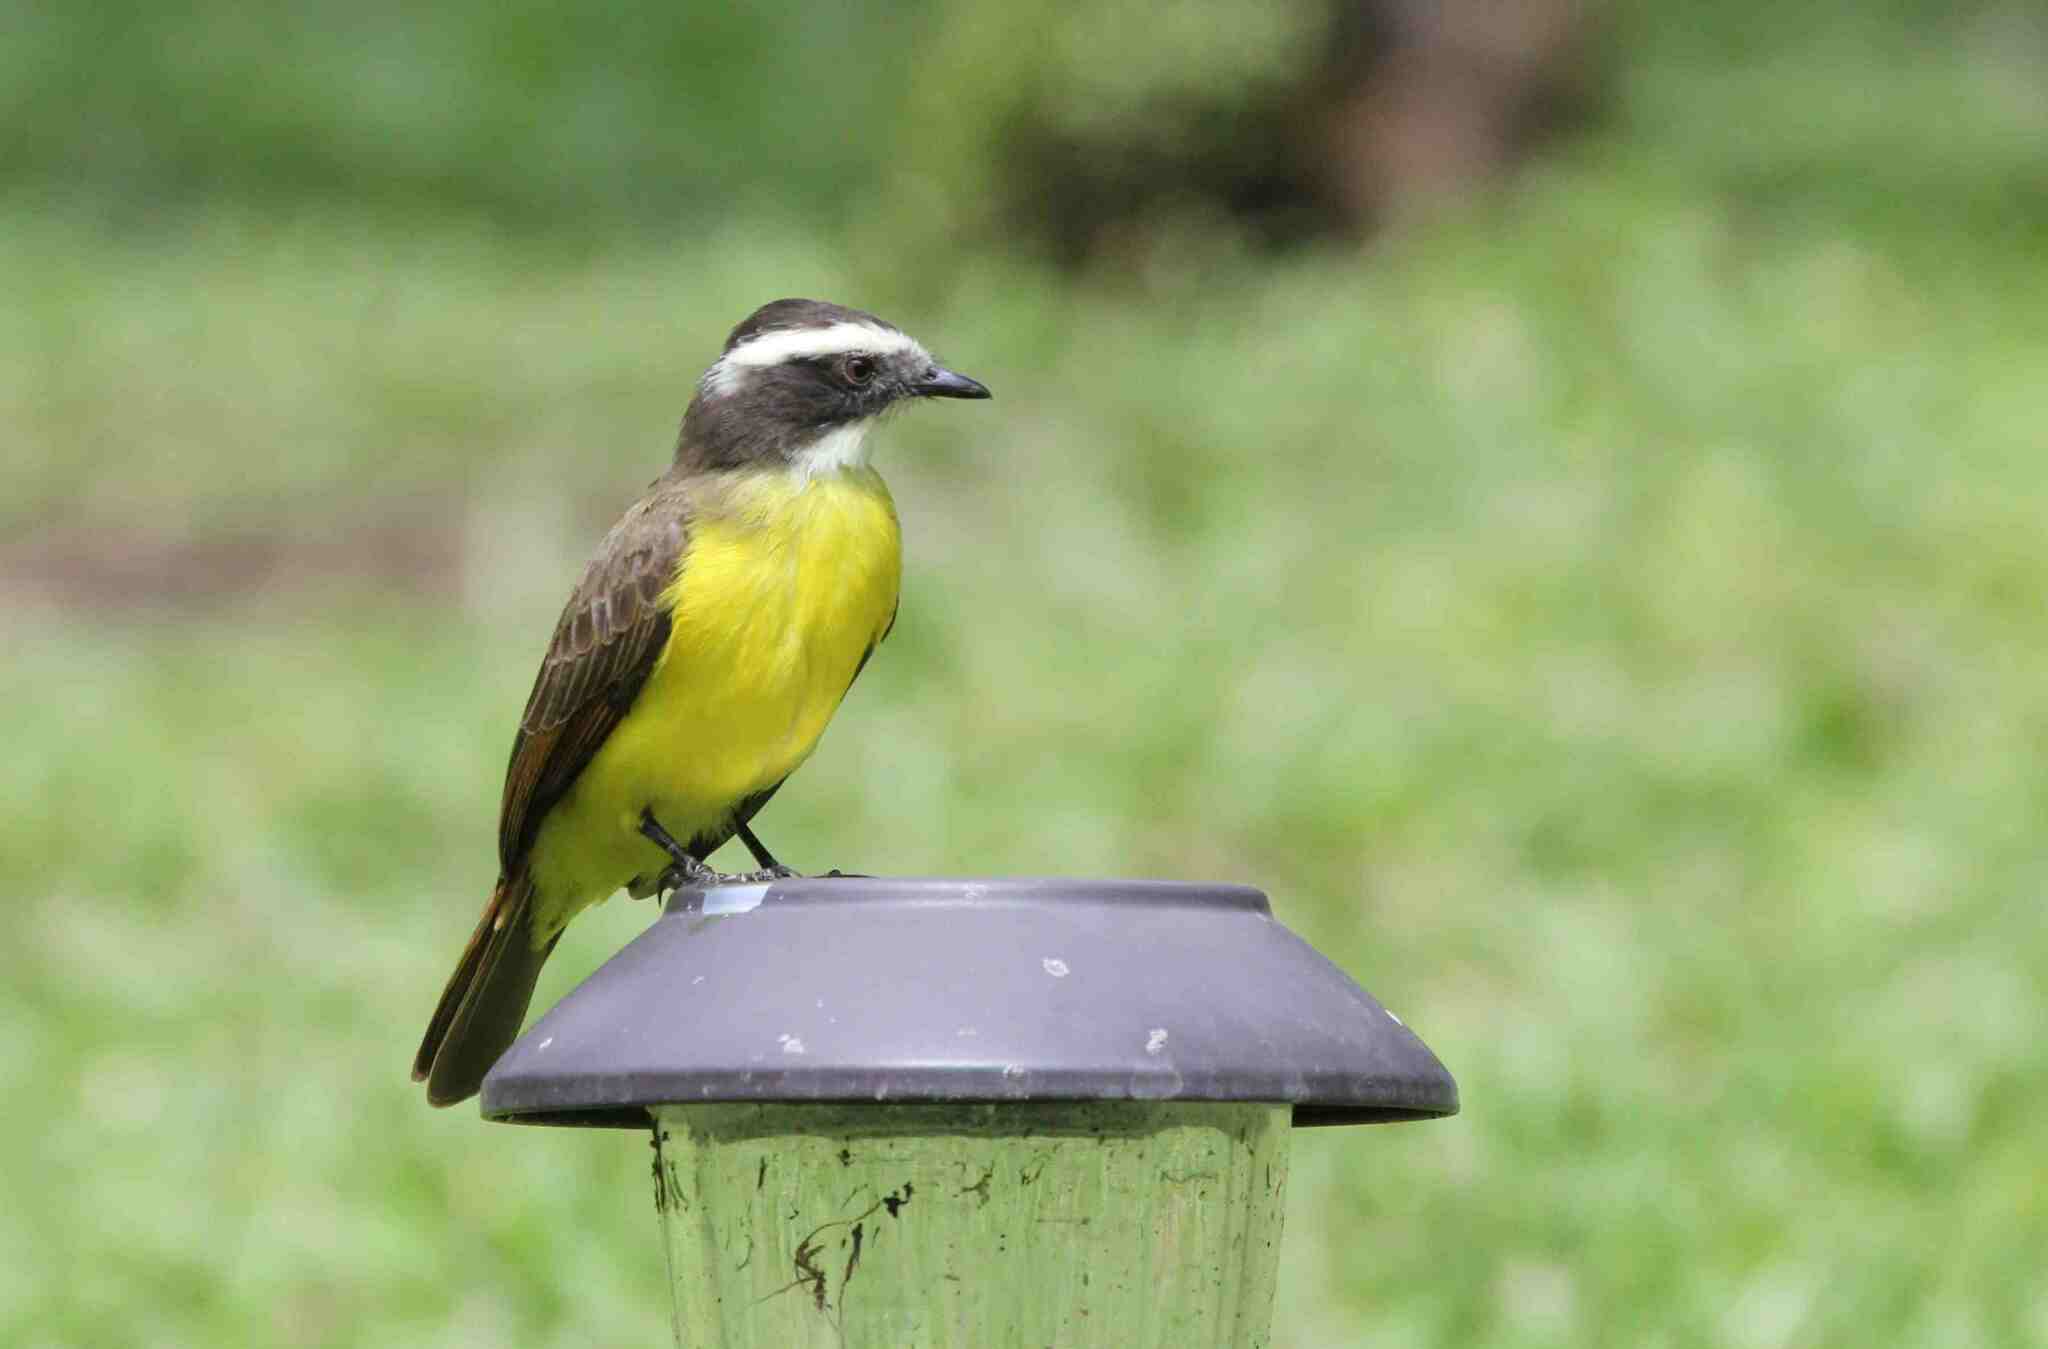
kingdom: Animalia
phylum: Chordata
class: Aves
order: Passeriformes
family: Tyrannidae
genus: Myiozetetes
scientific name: Myiozetetes cayanensis
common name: Rusty-margined flycatcher
